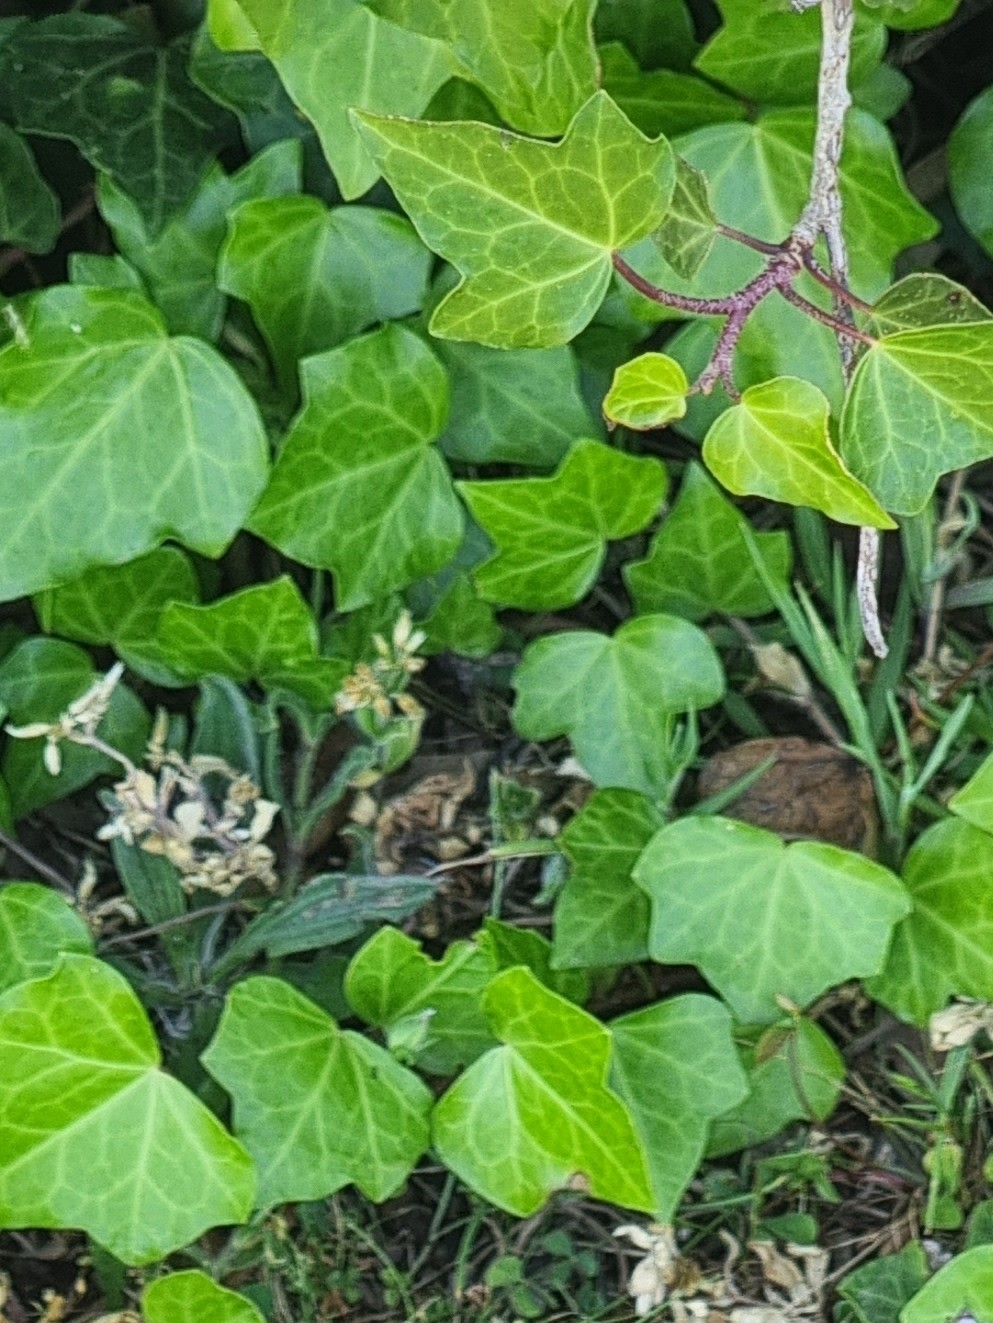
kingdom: Plantae
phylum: Tracheophyta
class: Magnoliopsida
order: Apiales
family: Araliaceae
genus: Hedera
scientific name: Hedera maderensis
